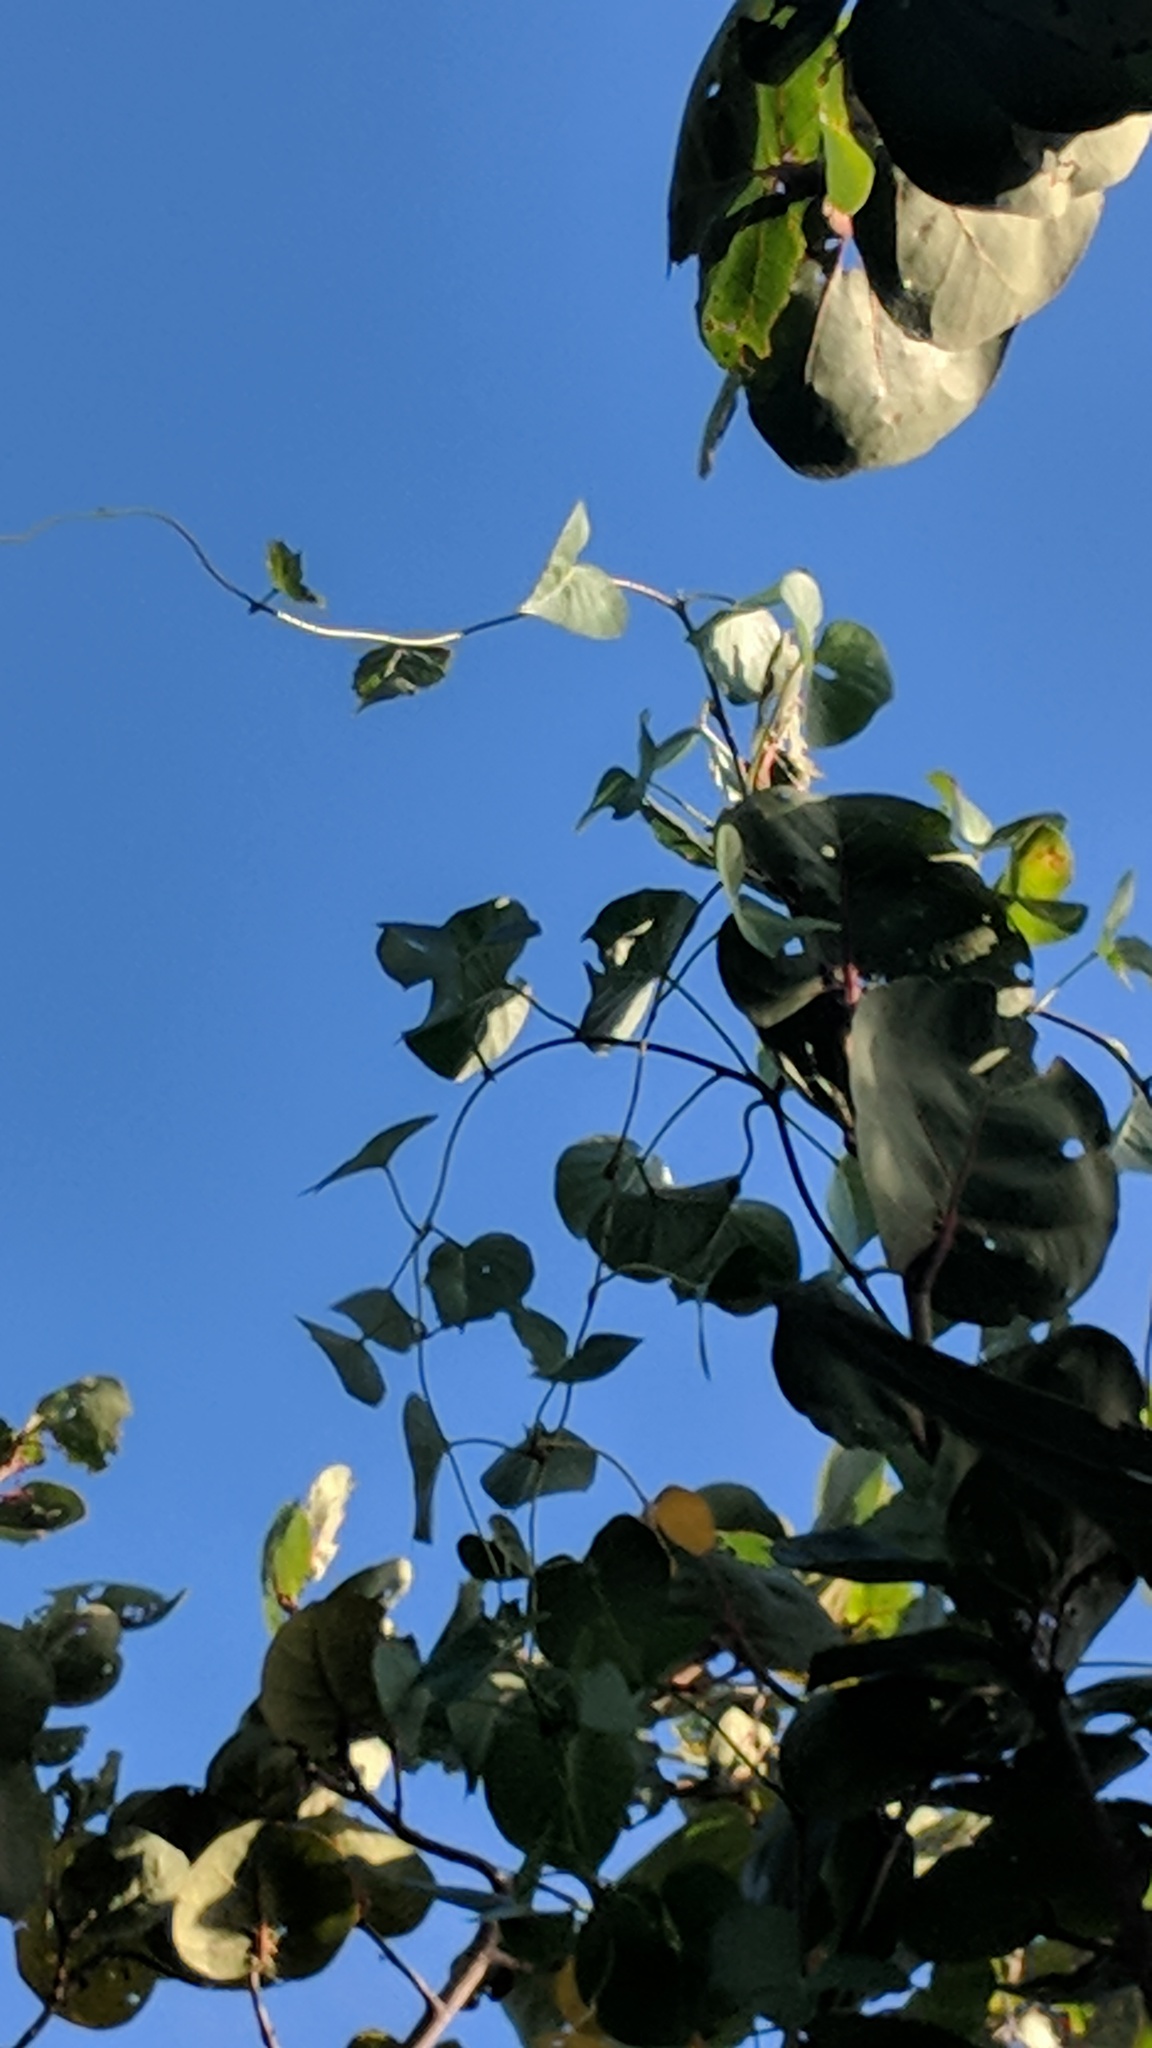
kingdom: Plantae
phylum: Tracheophyta
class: Magnoliopsida
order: Solanales
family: Convolvulaceae
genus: Ipomoea
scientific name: Ipomoea violacea
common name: Beach moonflower
